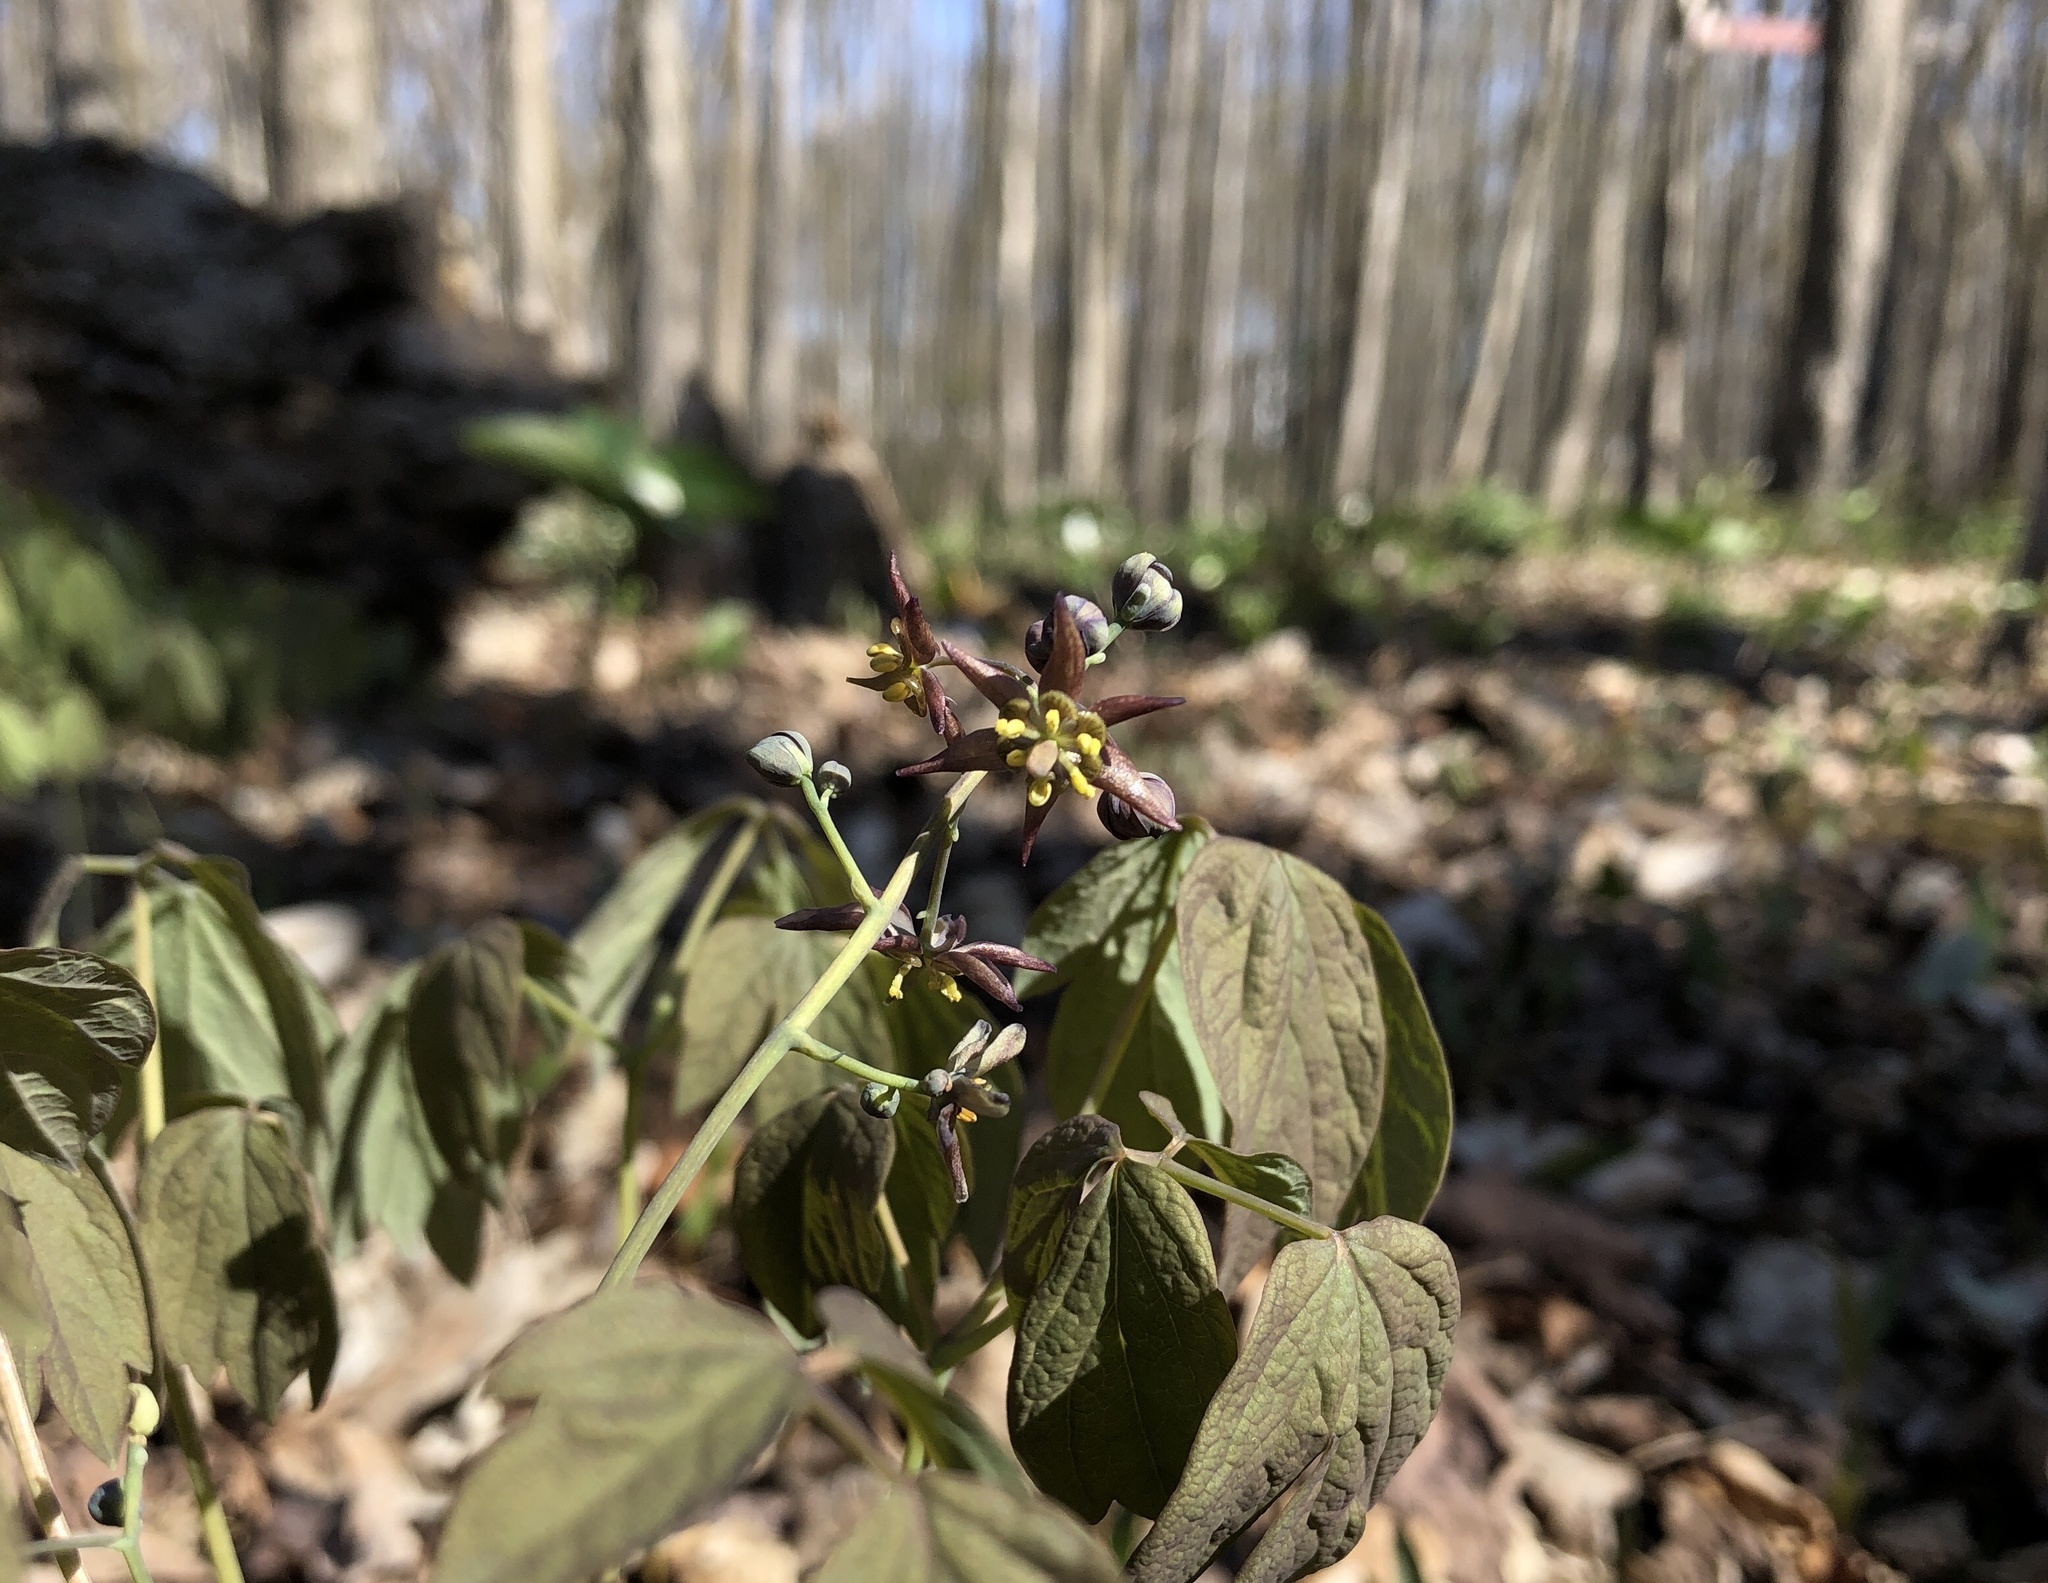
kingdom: Plantae
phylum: Tracheophyta
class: Magnoliopsida
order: Ranunculales
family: Berberidaceae
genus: Caulophyllum
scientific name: Caulophyllum giganteum
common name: Blue cohosh
